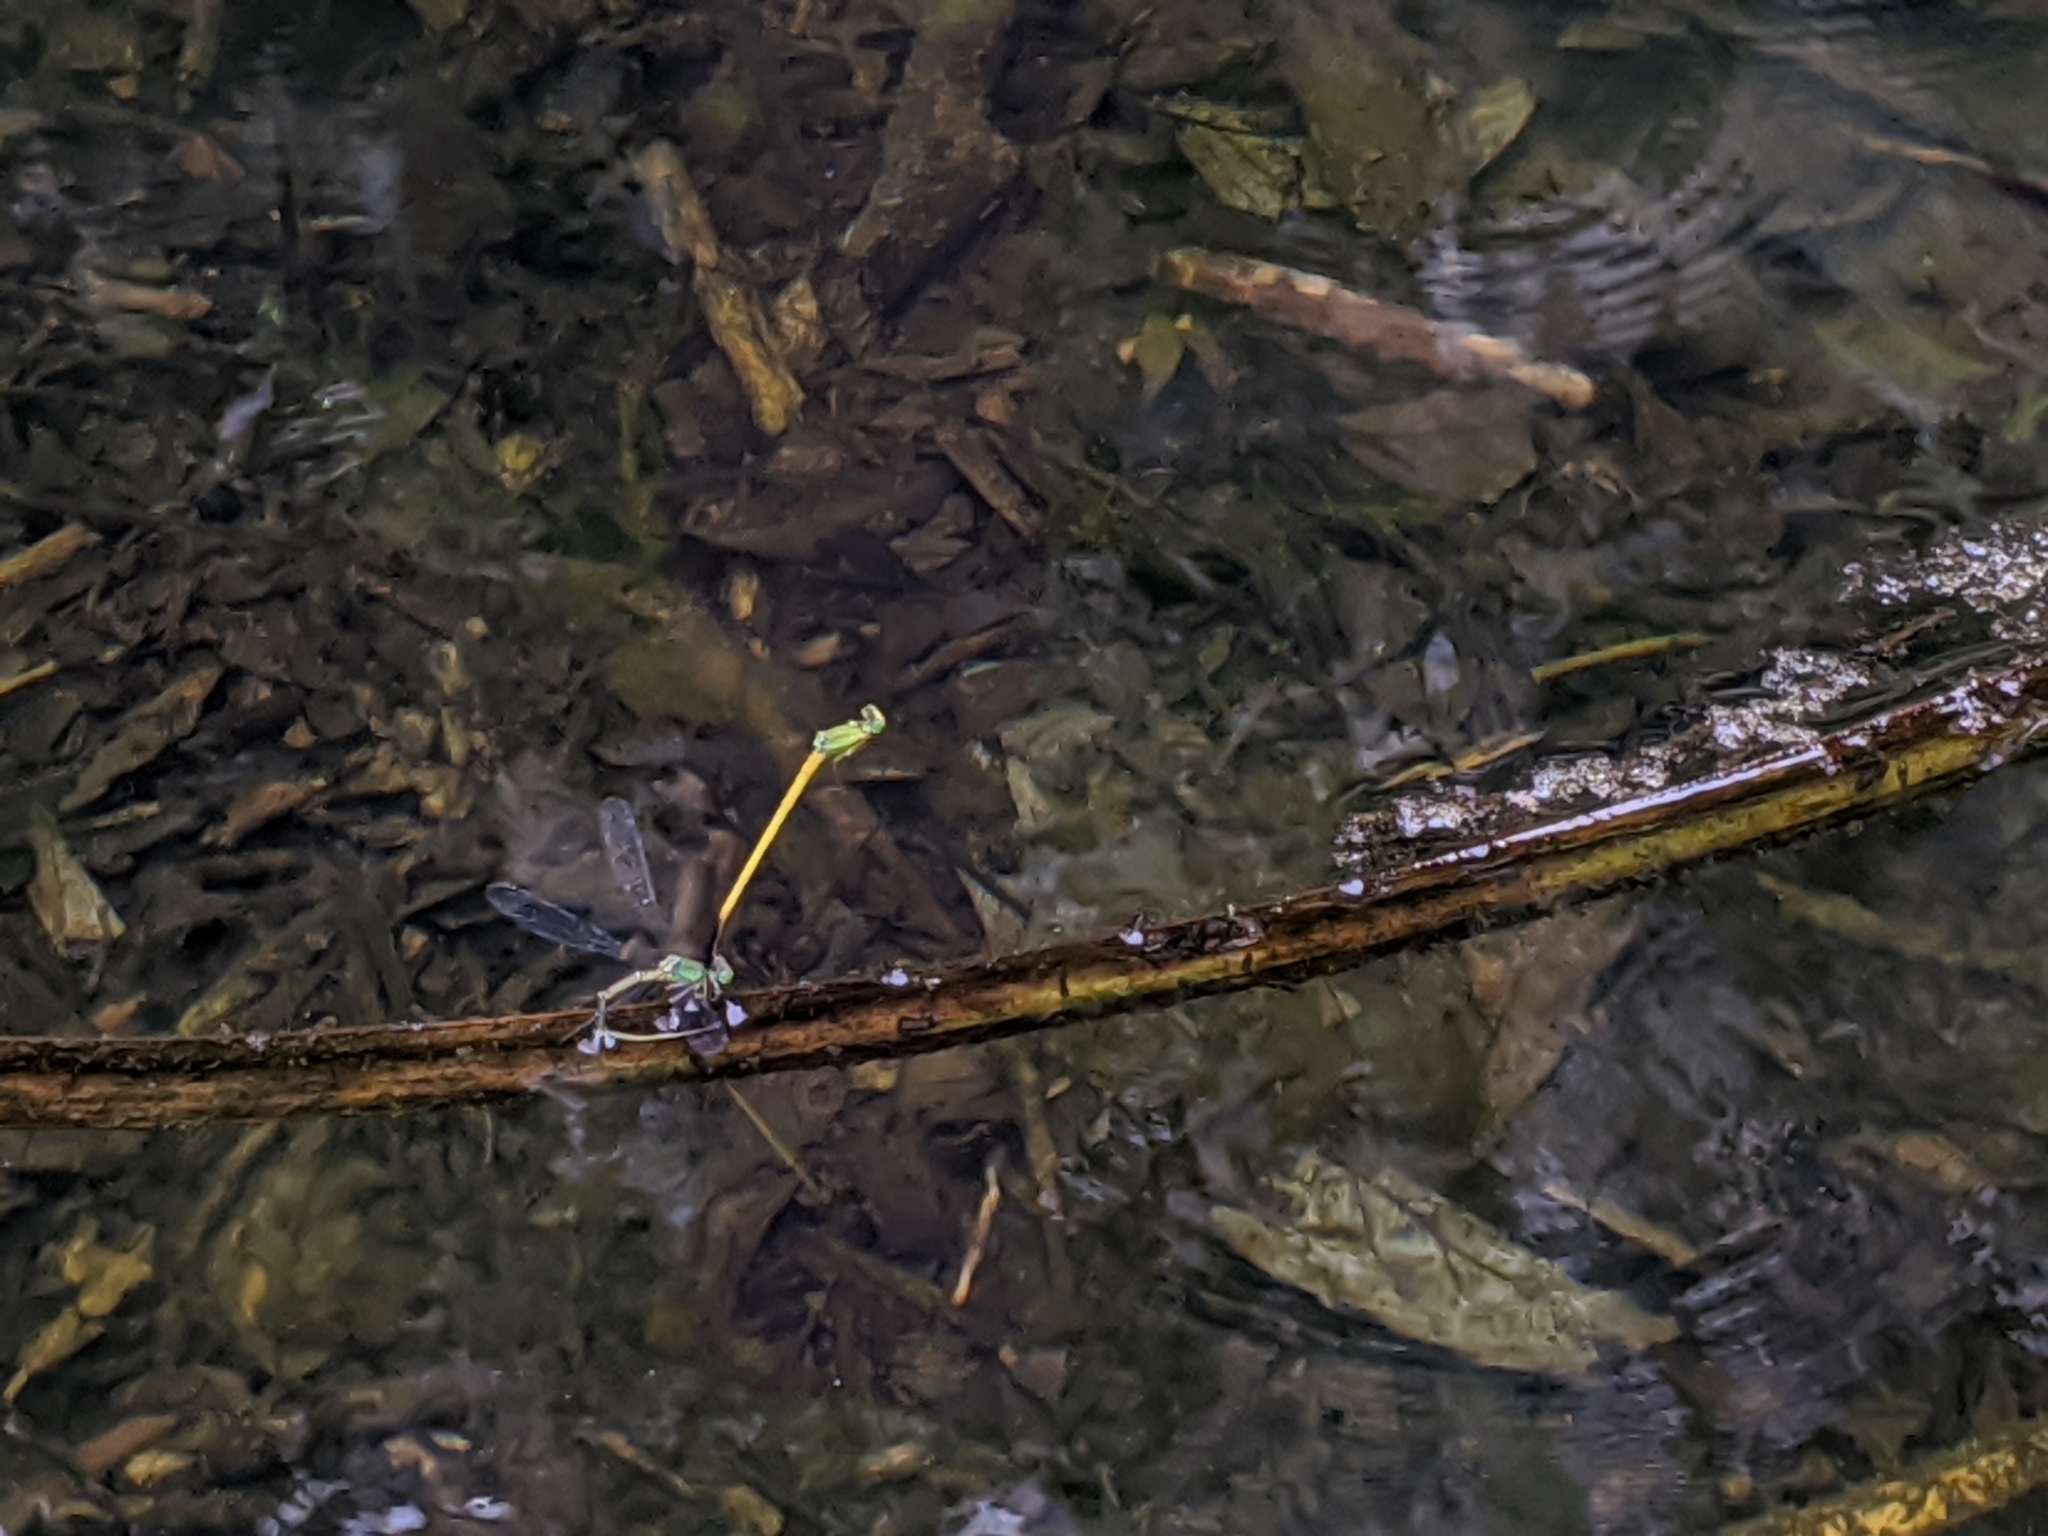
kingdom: Animalia
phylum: Arthropoda
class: Insecta
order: Odonata
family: Coenagrionidae
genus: Ceriagrion
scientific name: Ceriagrion fallax
